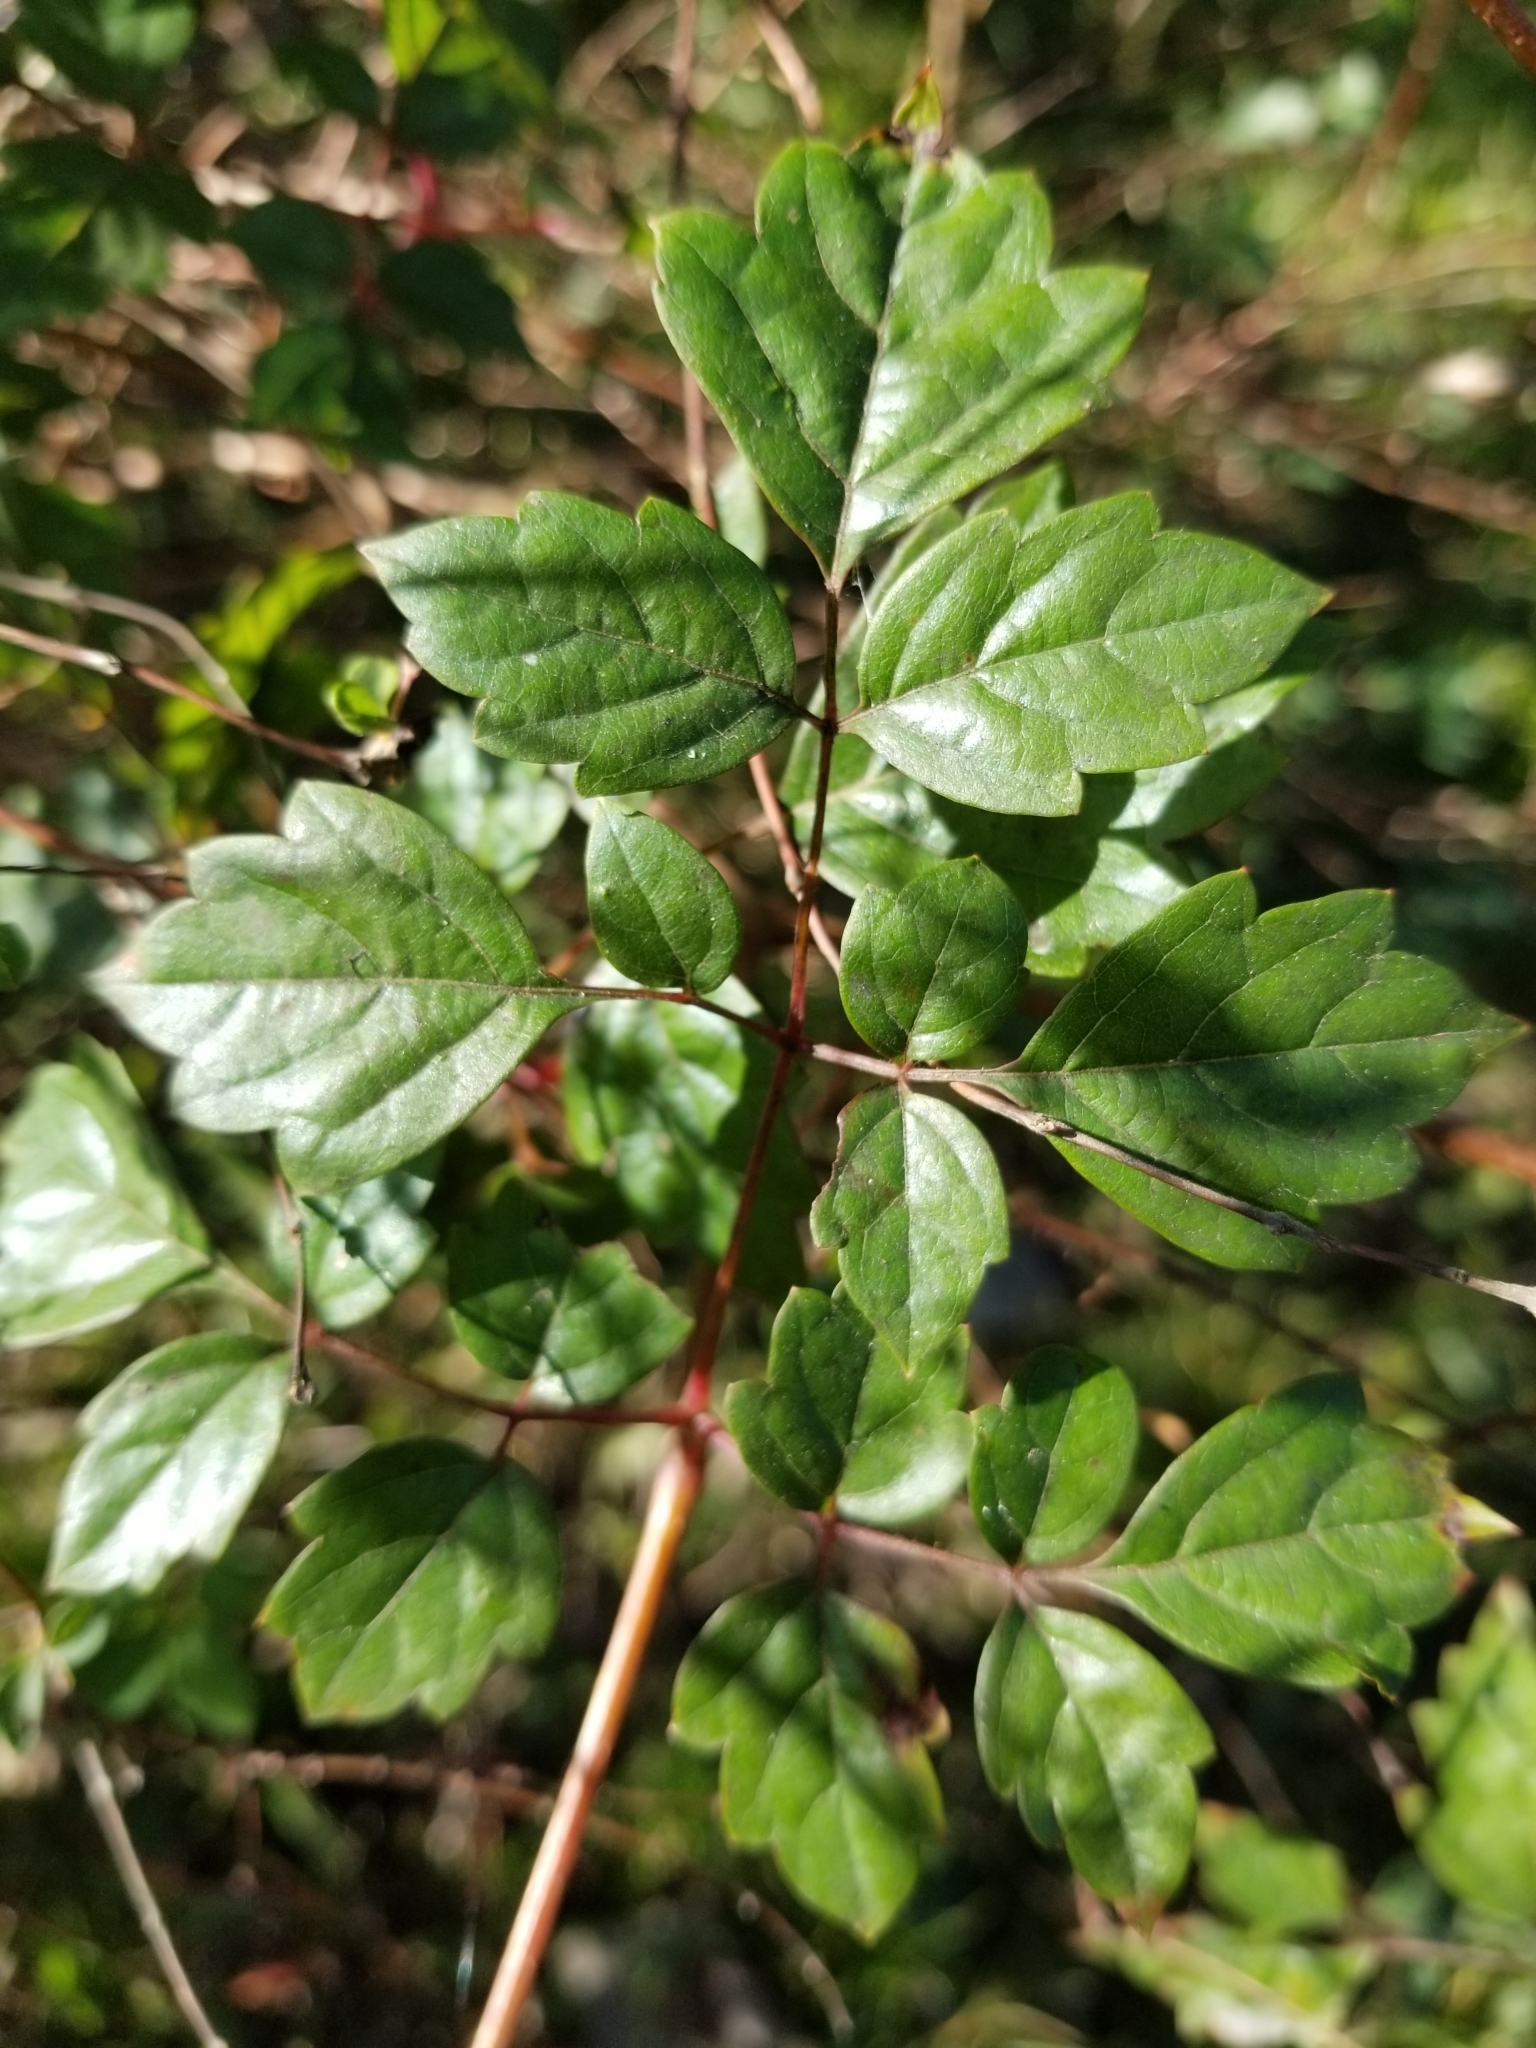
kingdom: Plantae
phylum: Tracheophyta
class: Magnoliopsida
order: Vitales
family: Vitaceae
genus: Nekemias
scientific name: Nekemias arborea
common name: Peppervine
